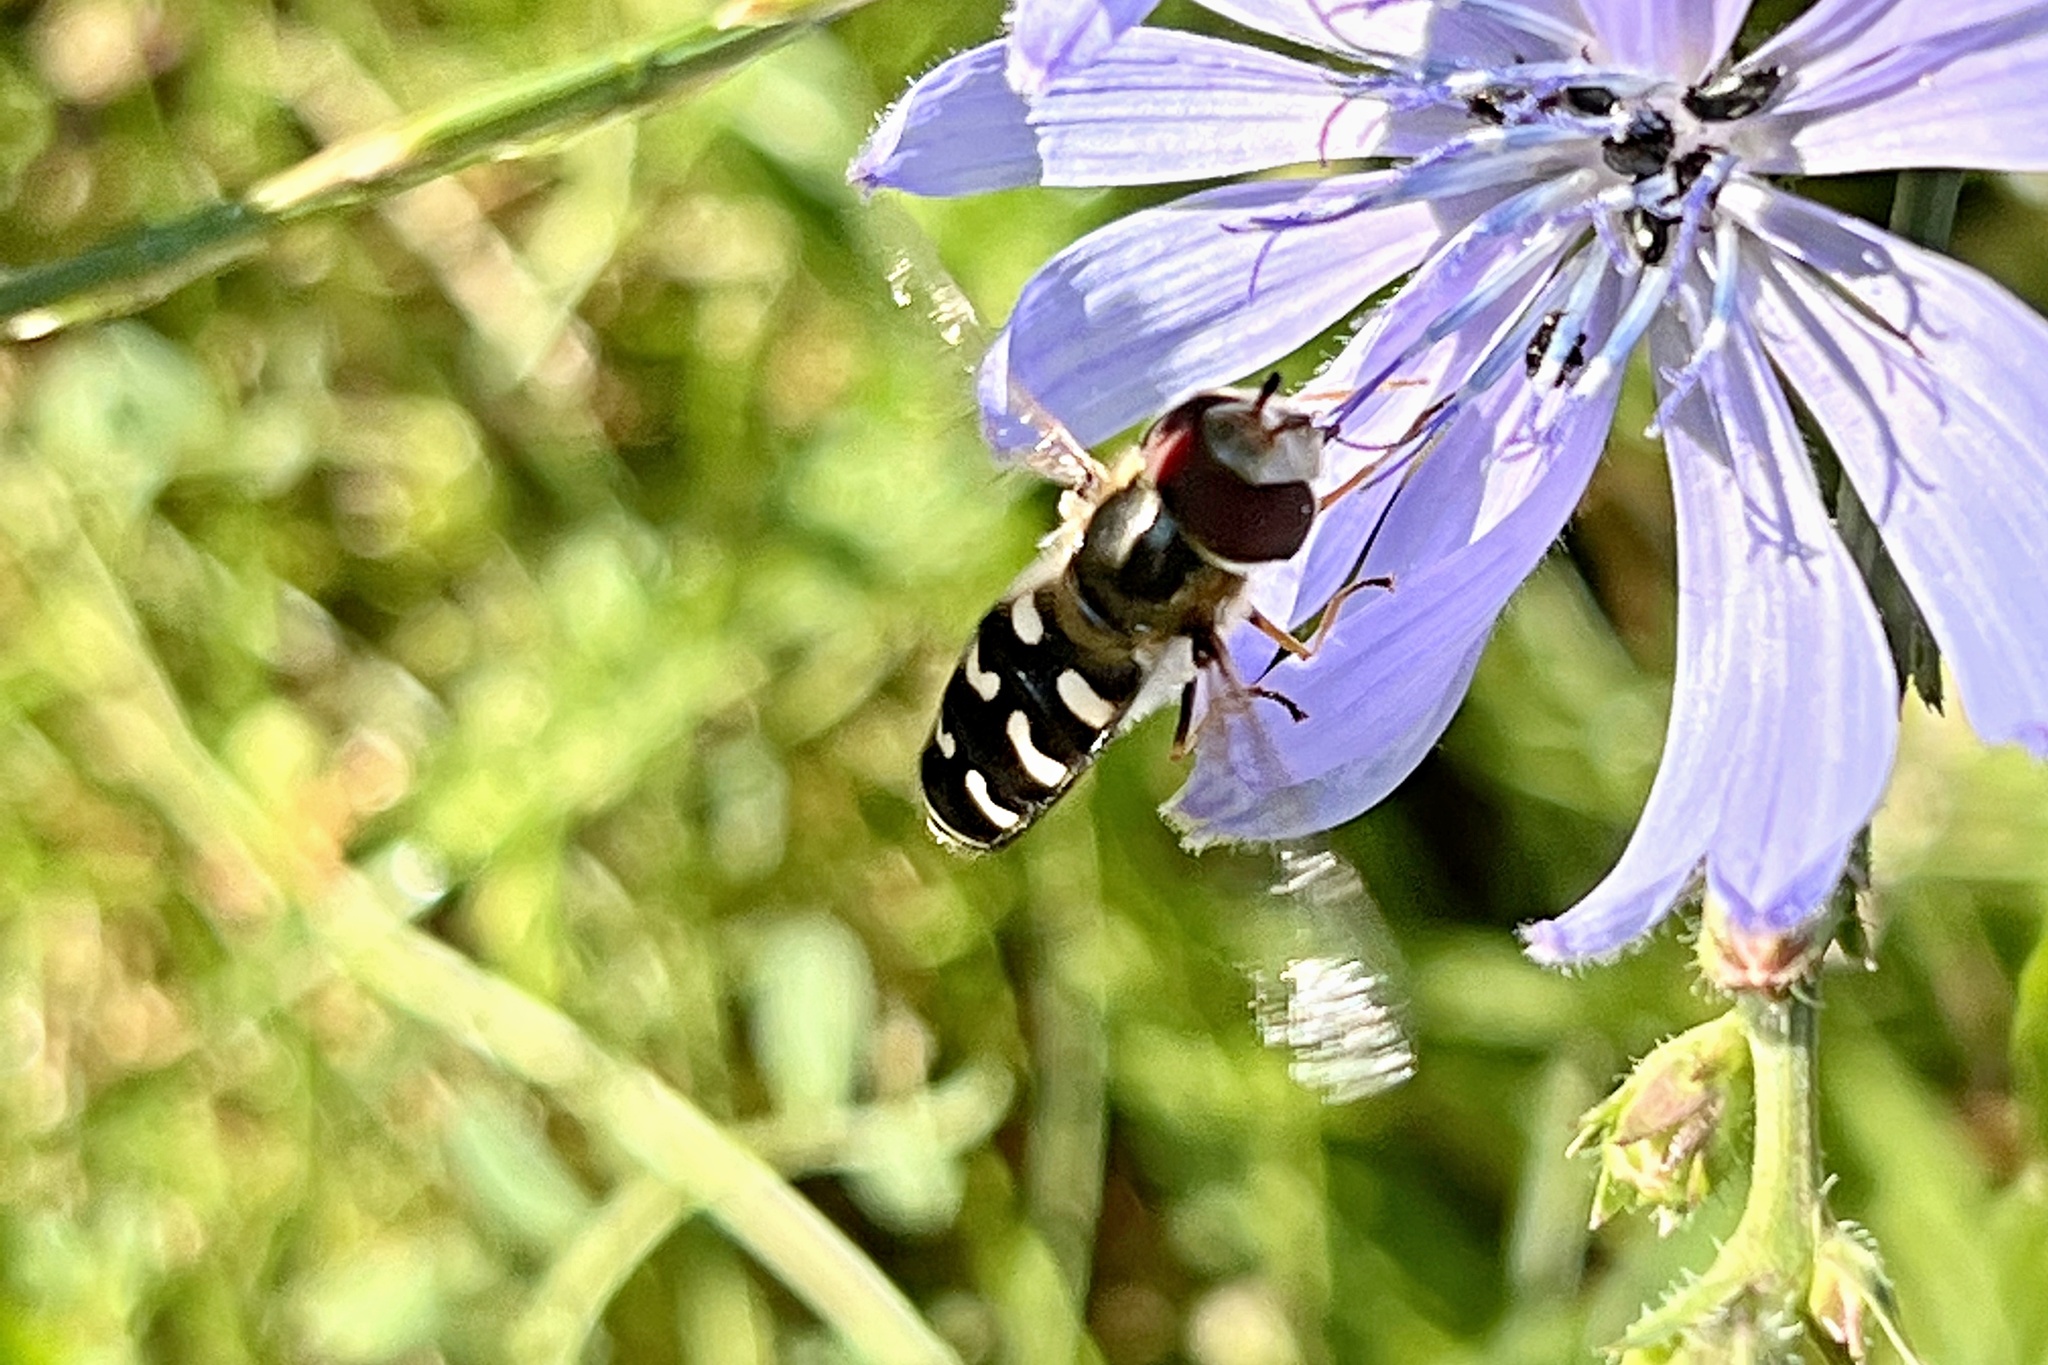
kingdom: Animalia
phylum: Arthropoda
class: Insecta
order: Diptera
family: Syrphidae
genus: Scaeva
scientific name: Scaeva pyrastri
